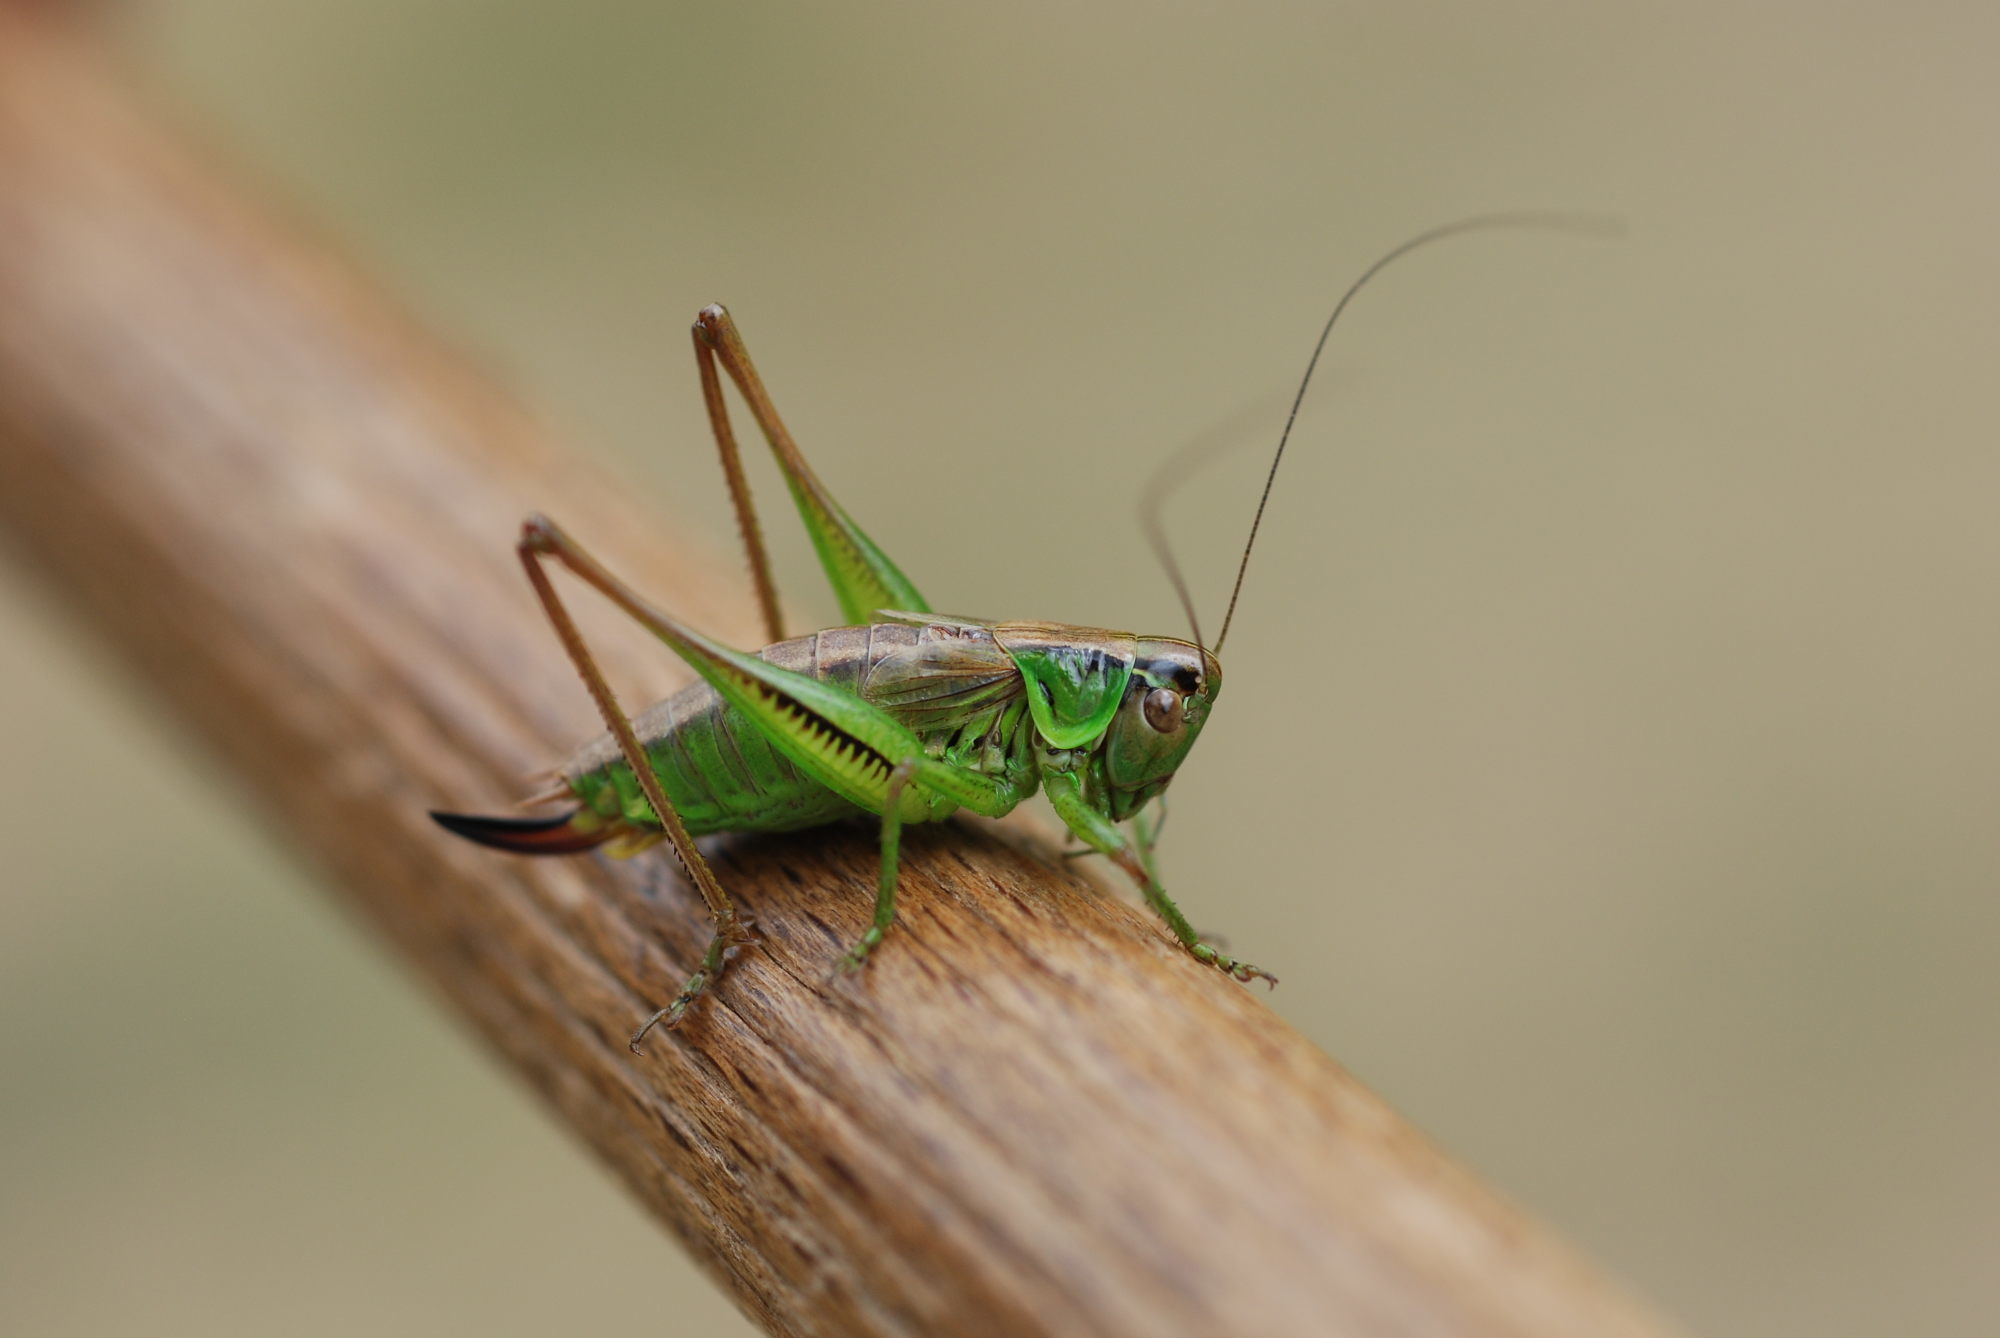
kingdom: Animalia
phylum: Arthropoda
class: Insecta
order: Orthoptera
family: Tettigoniidae
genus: Roeseliana
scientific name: Roeseliana roeselii
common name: Roesel's bush cricket
